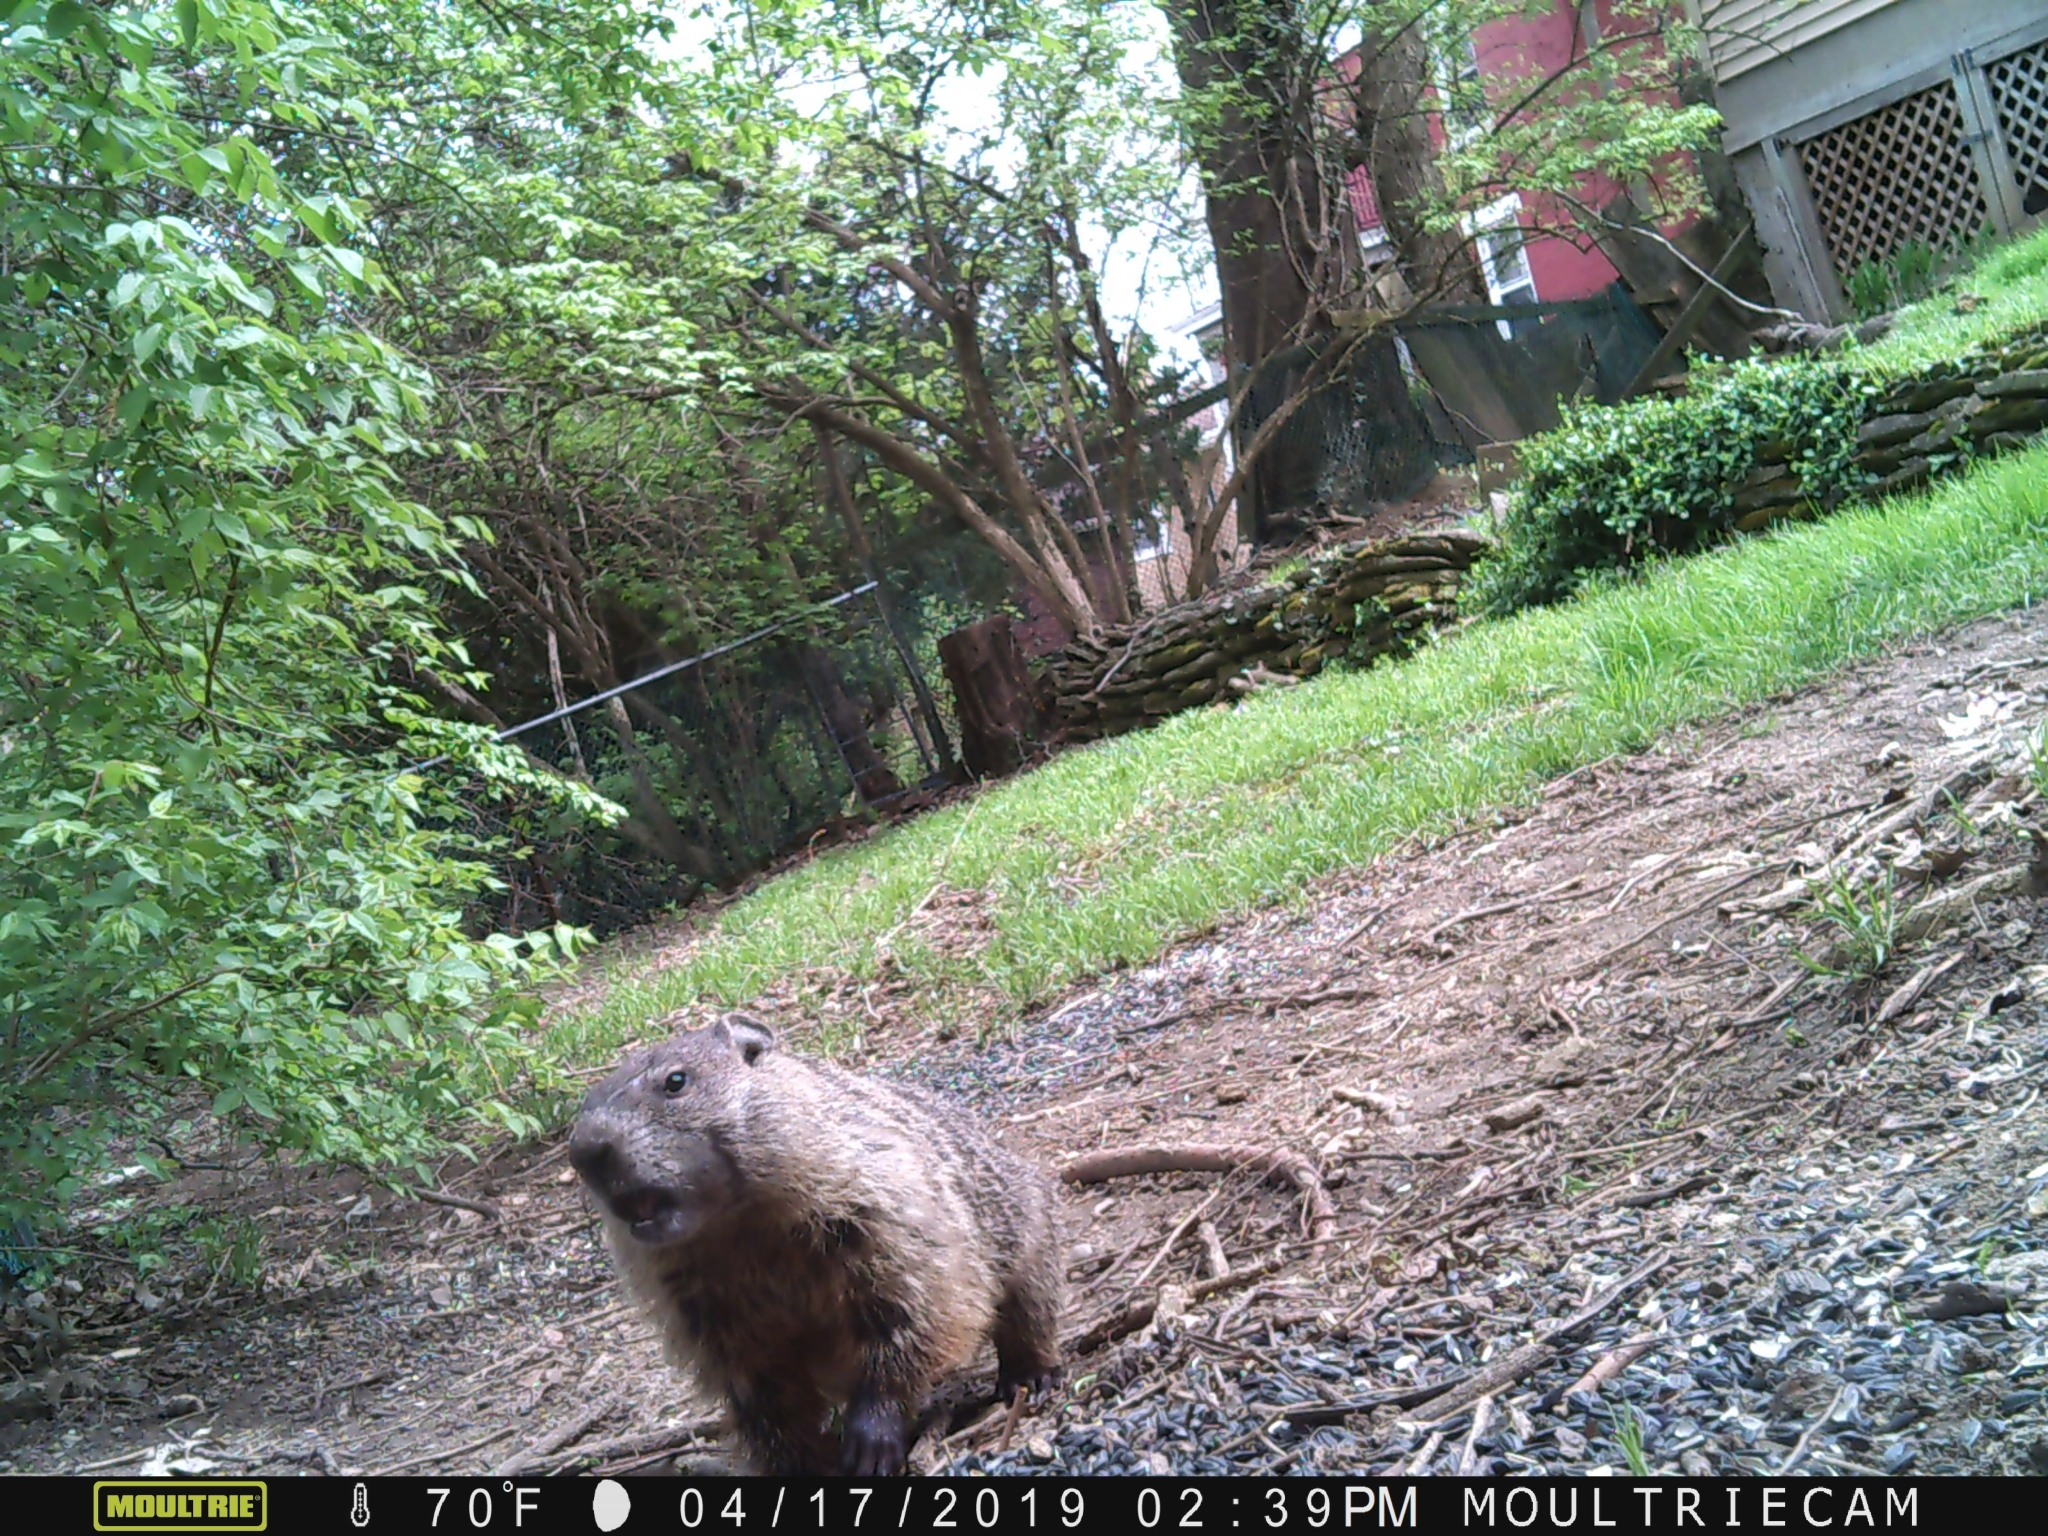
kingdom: Animalia
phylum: Chordata
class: Mammalia
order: Rodentia
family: Sciuridae
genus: Marmota
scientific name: Marmota monax
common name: Groundhog
